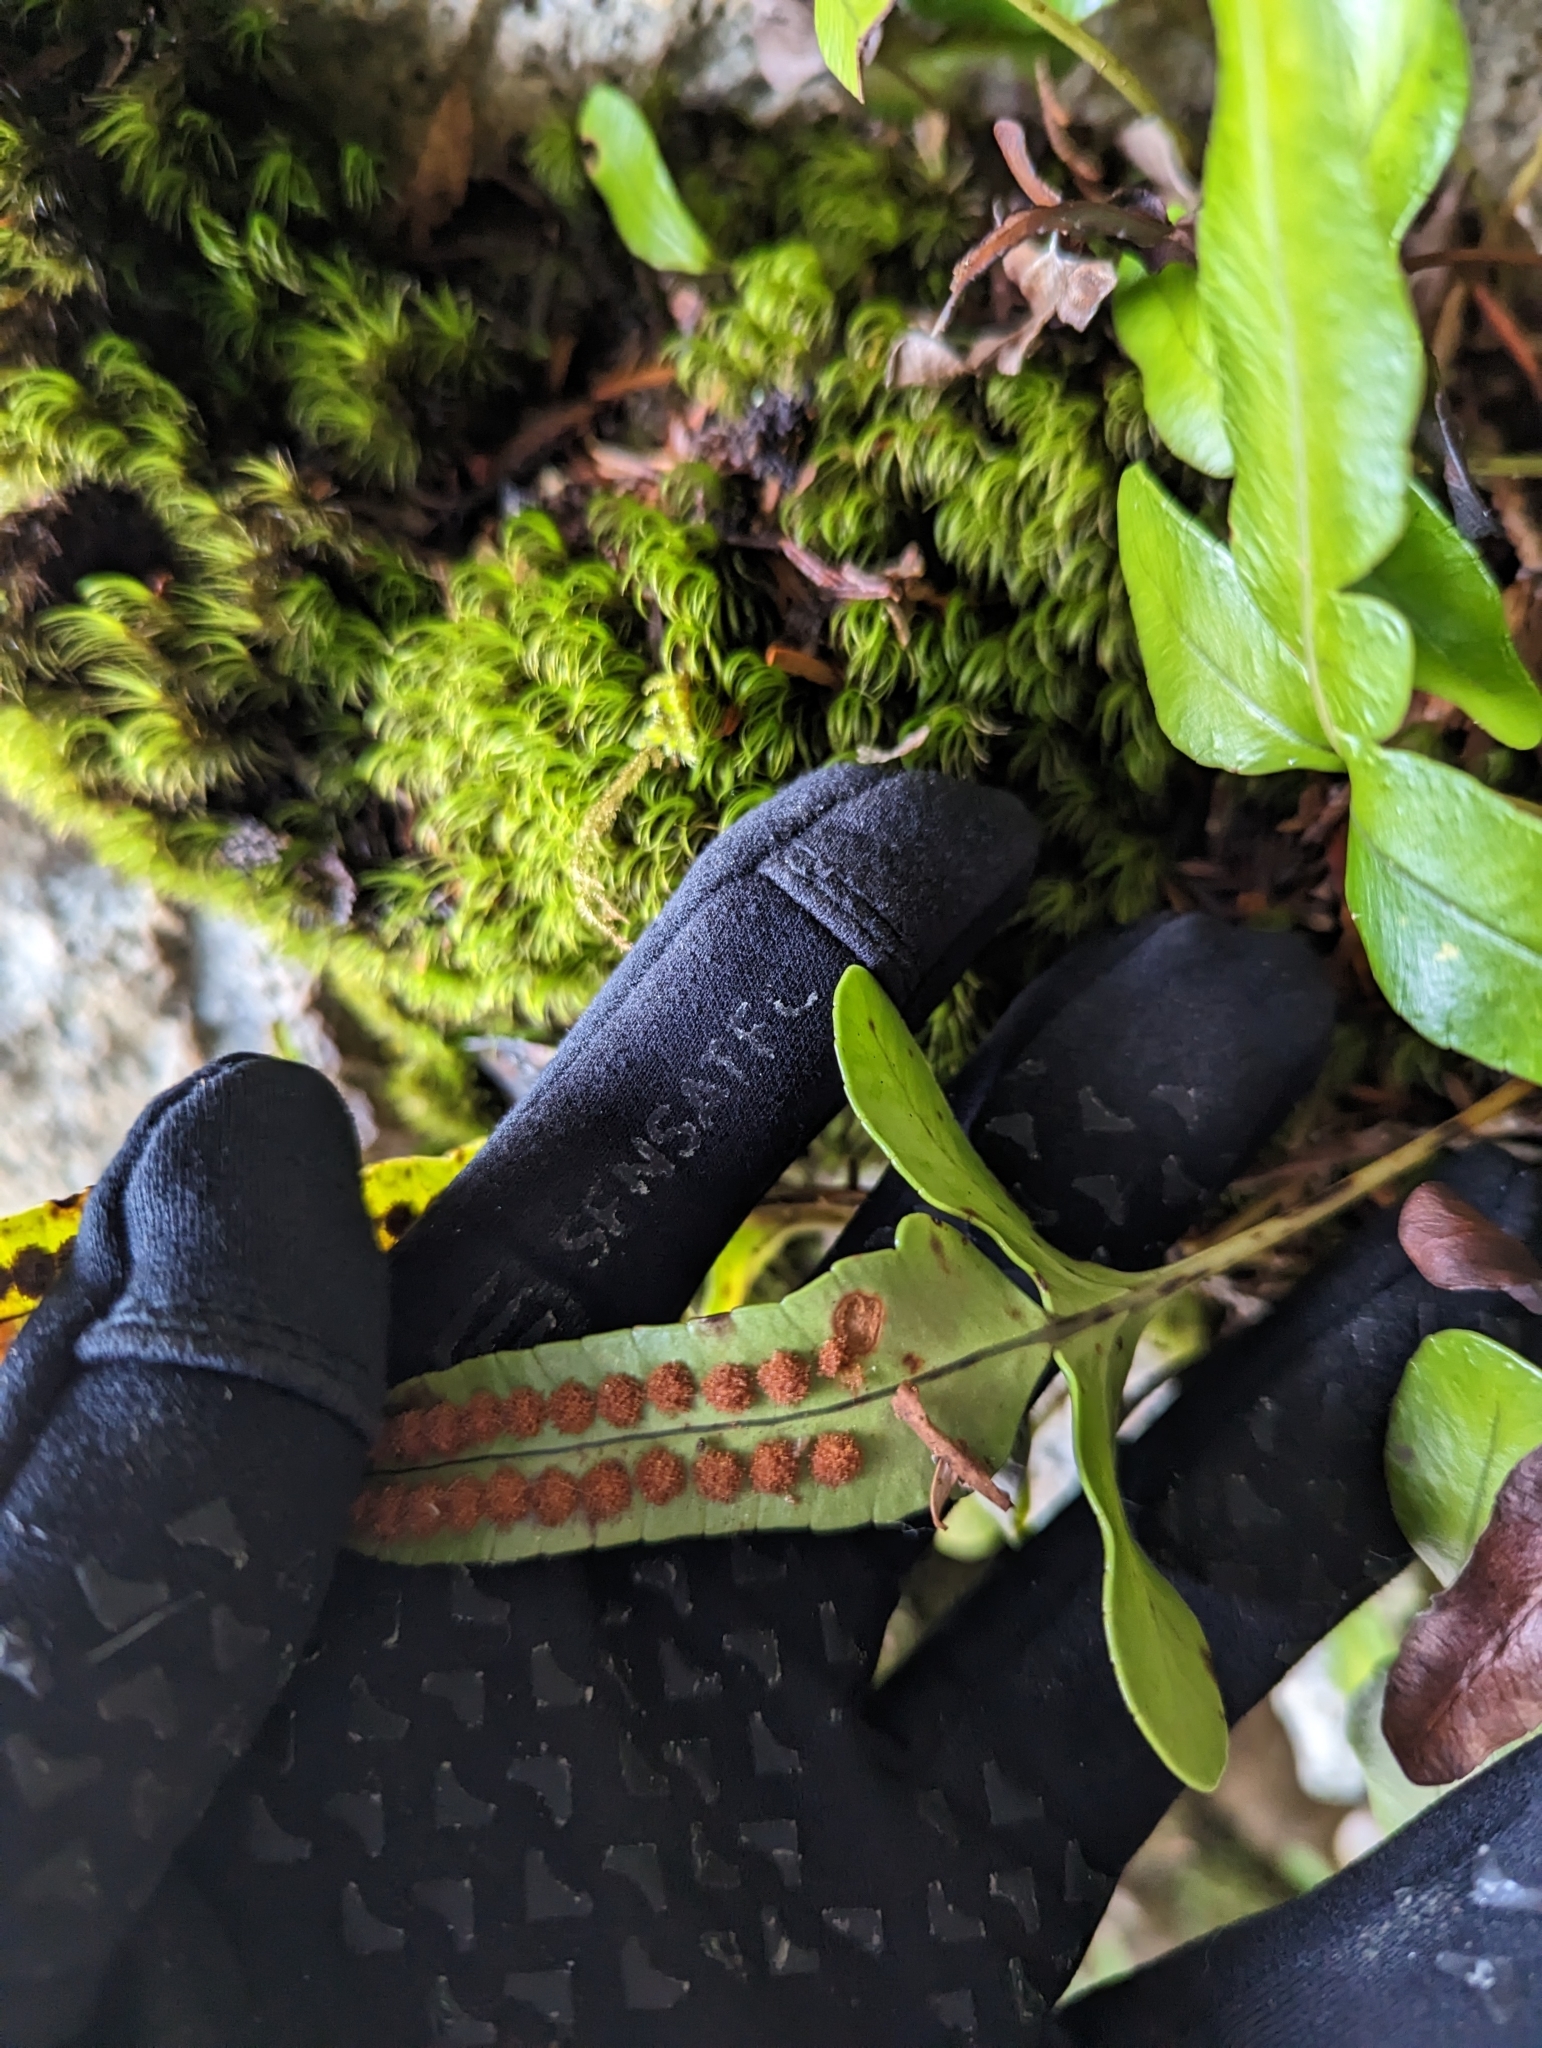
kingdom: Plantae
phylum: Tracheophyta
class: Polypodiopsida
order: Polypodiales
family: Polypodiaceae
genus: Polypodium
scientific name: Polypodium scouleri
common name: Scouler's polypody
